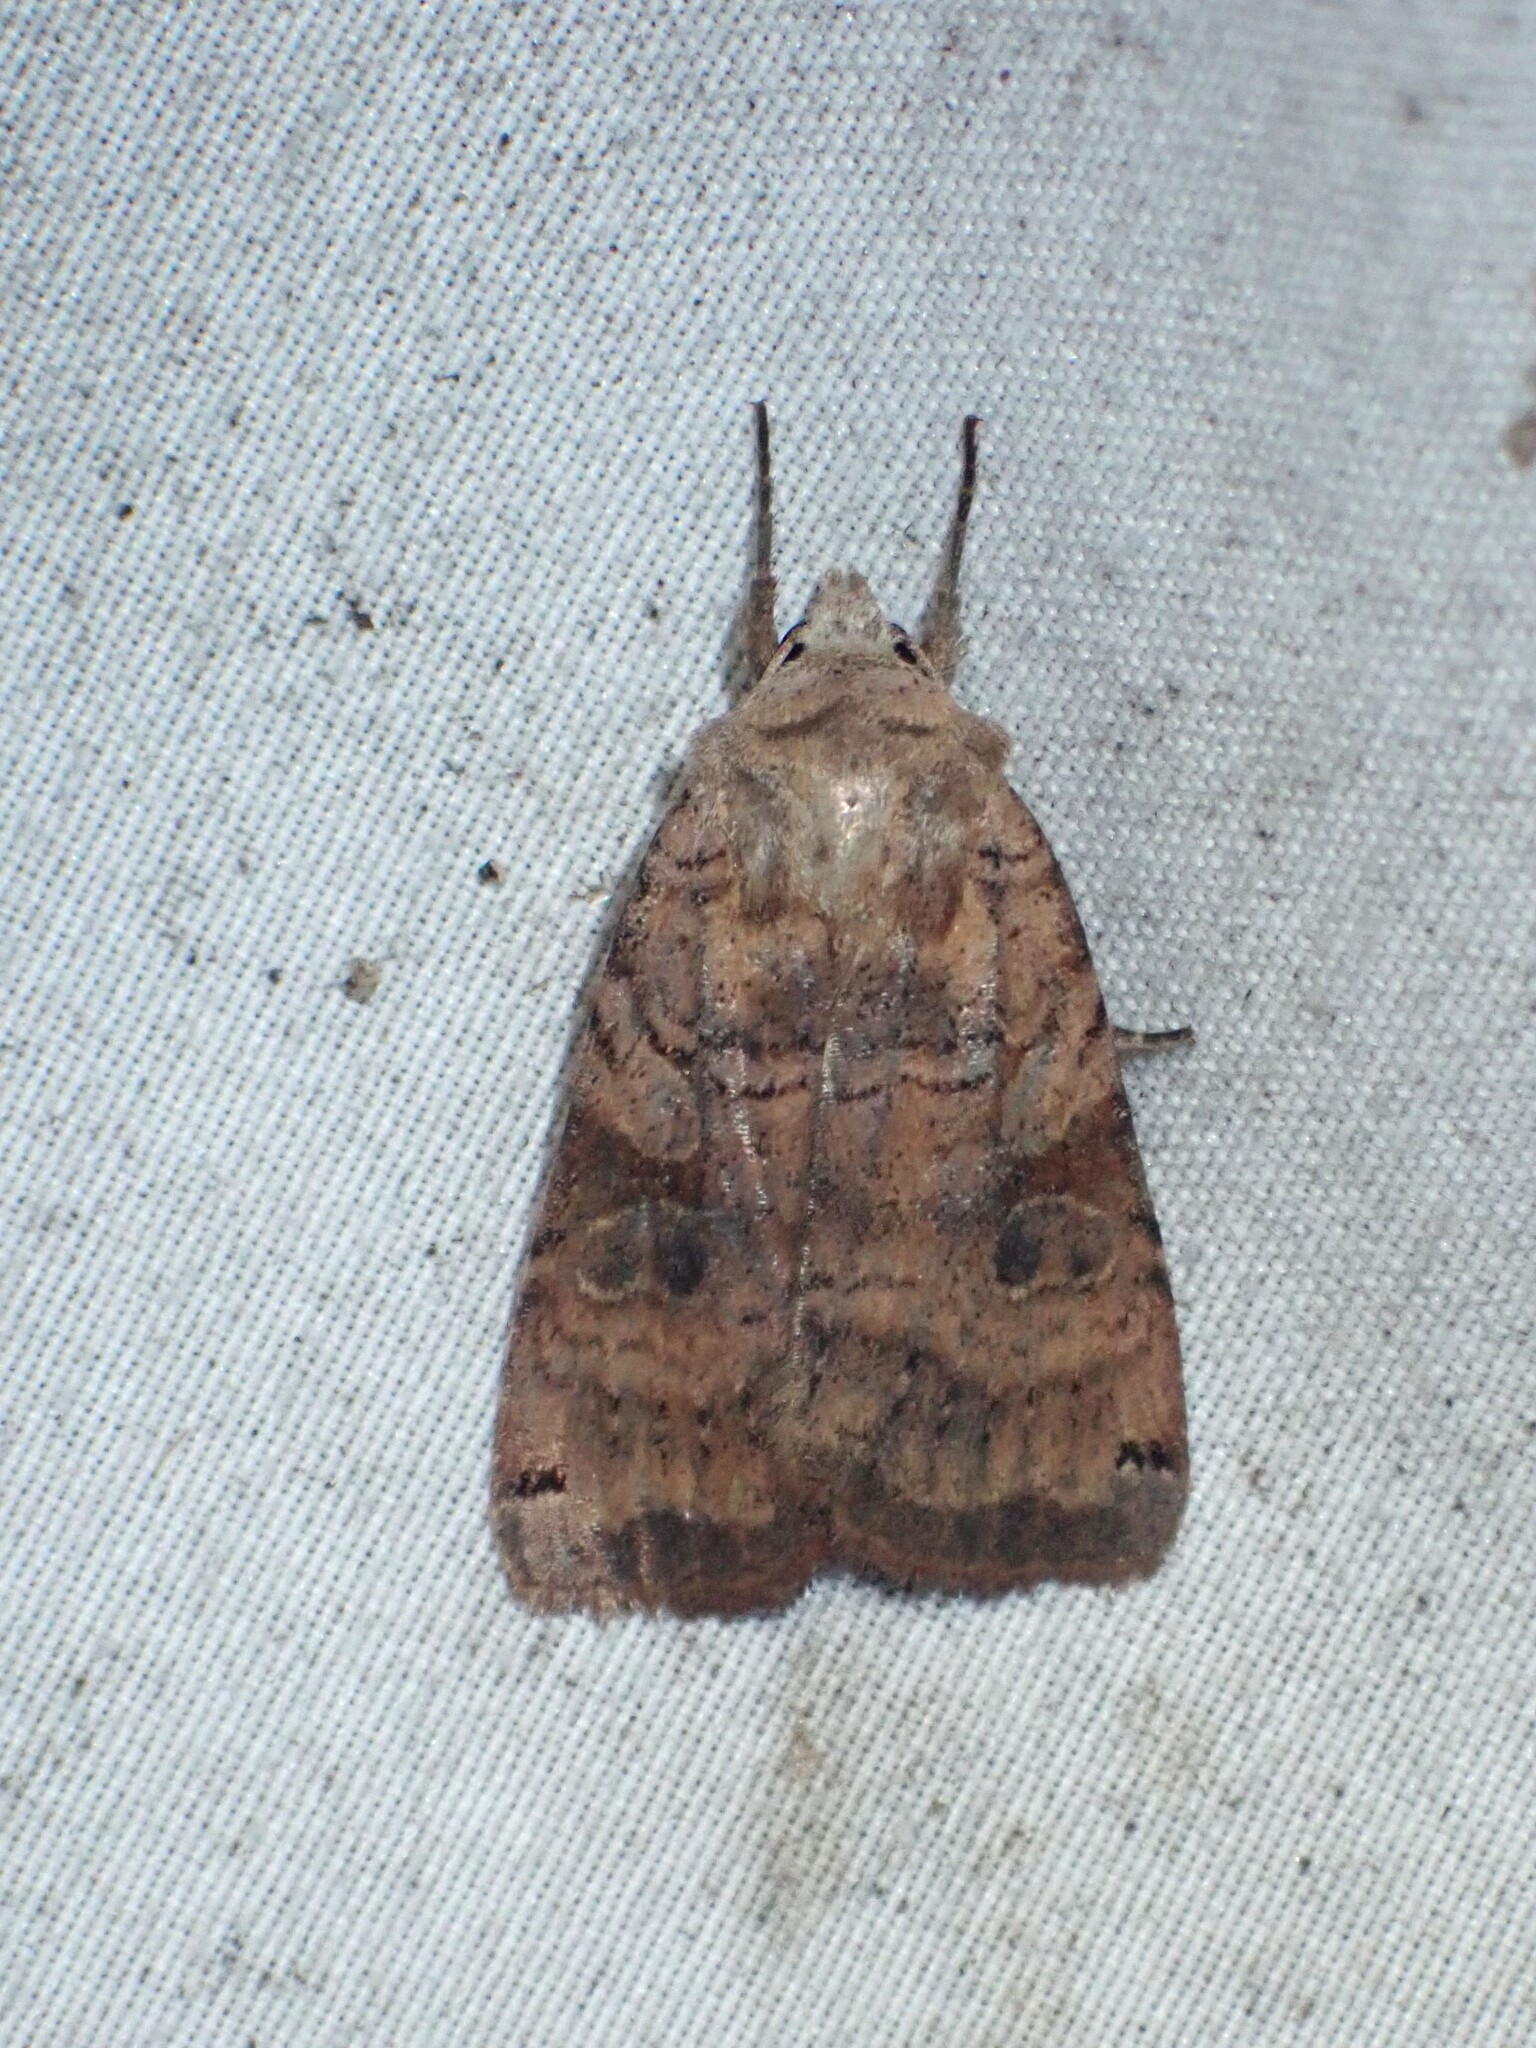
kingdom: Animalia
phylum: Arthropoda
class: Insecta
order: Lepidoptera
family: Noctuidae
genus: Xestia
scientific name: Xestia smithii
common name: Smith's dart
